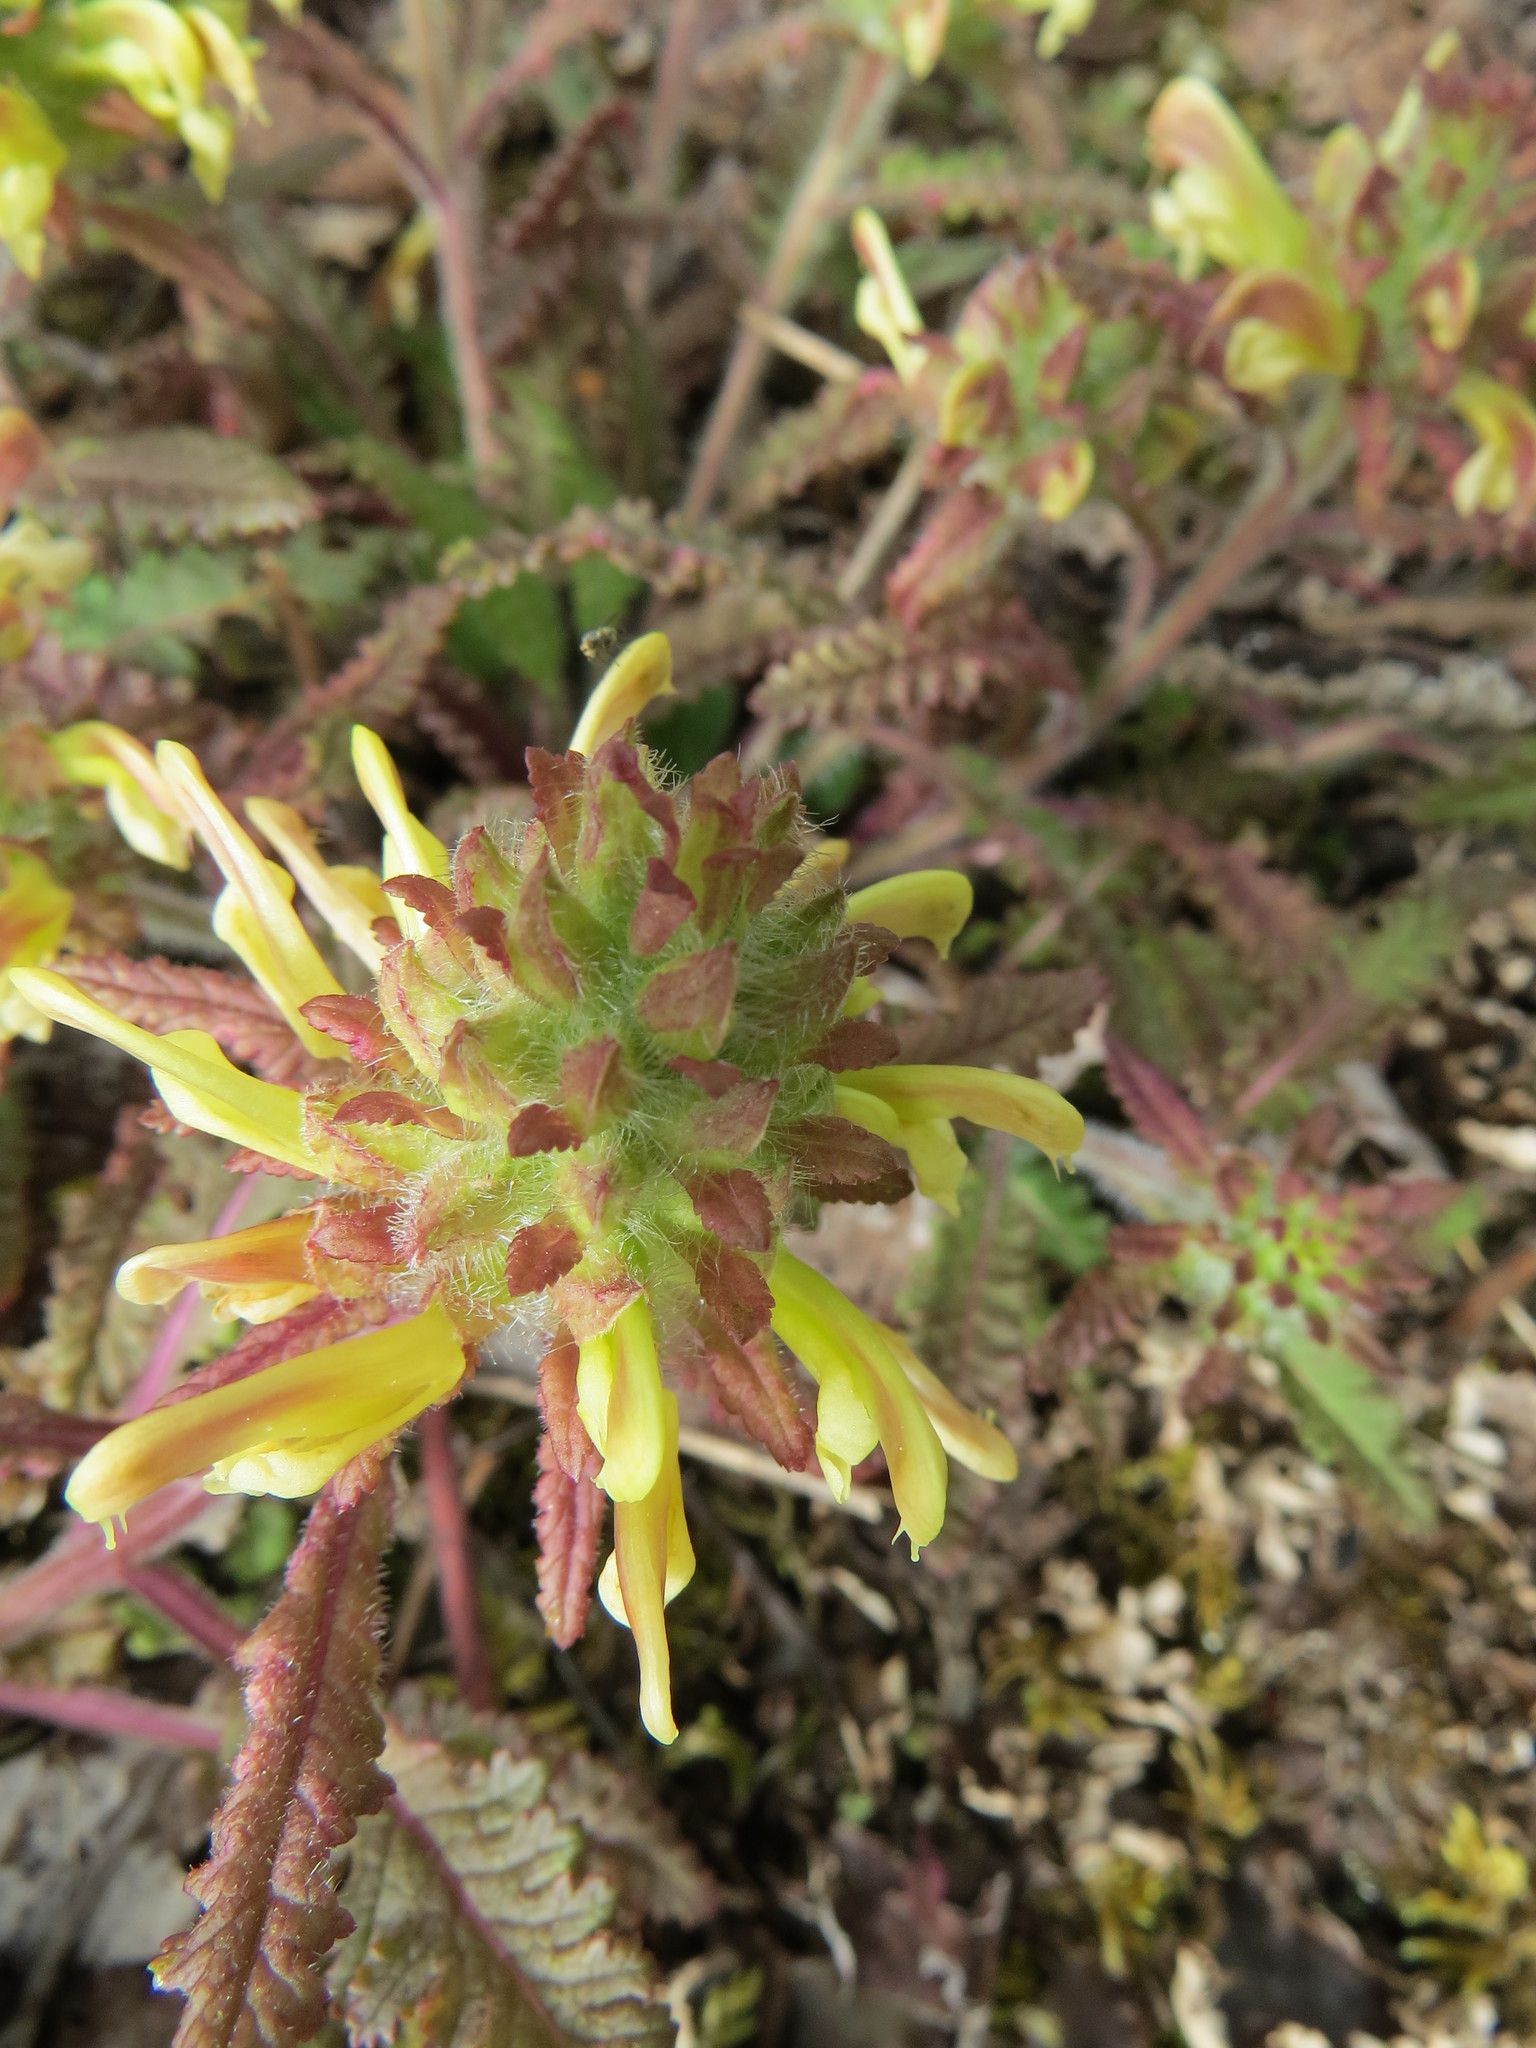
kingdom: Plantae
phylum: Tracheophyta
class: Magnoliopsida
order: Lamiales
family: Orobanchaceae
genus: Pedicularis
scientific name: Pedicularis canadensis
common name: Early lousewort
